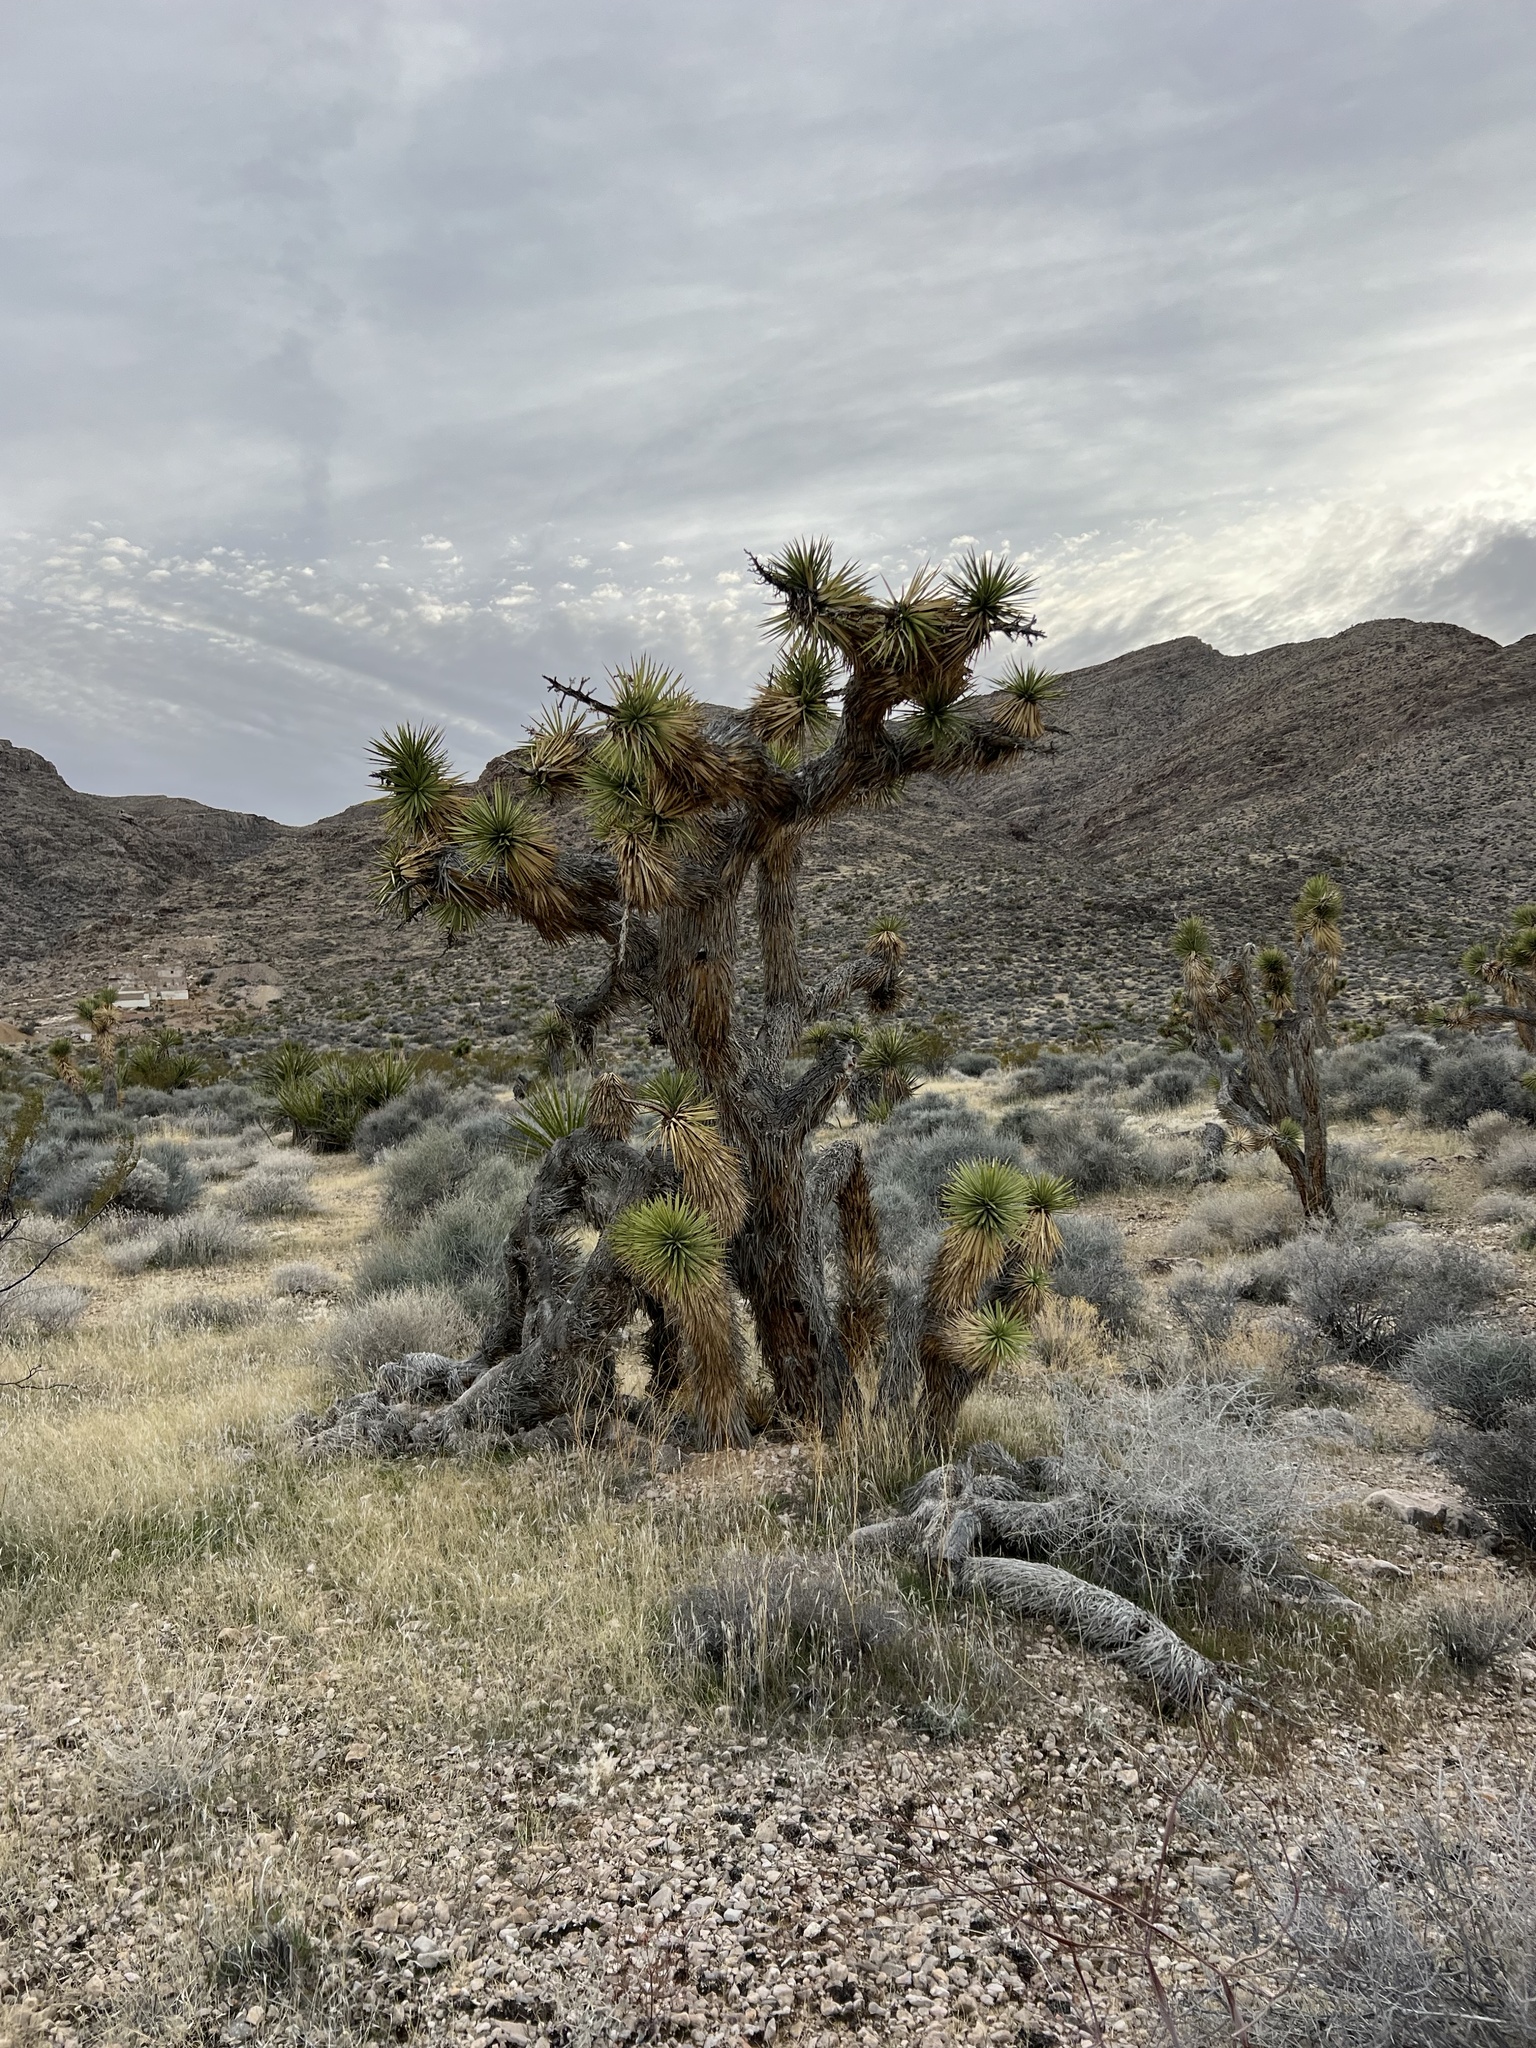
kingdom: Plantae
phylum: Tracheophyta
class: Liliopsida
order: Asparagales
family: Asparagaceae
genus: Yucca
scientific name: Yucca brevifolia
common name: Joshua tree
